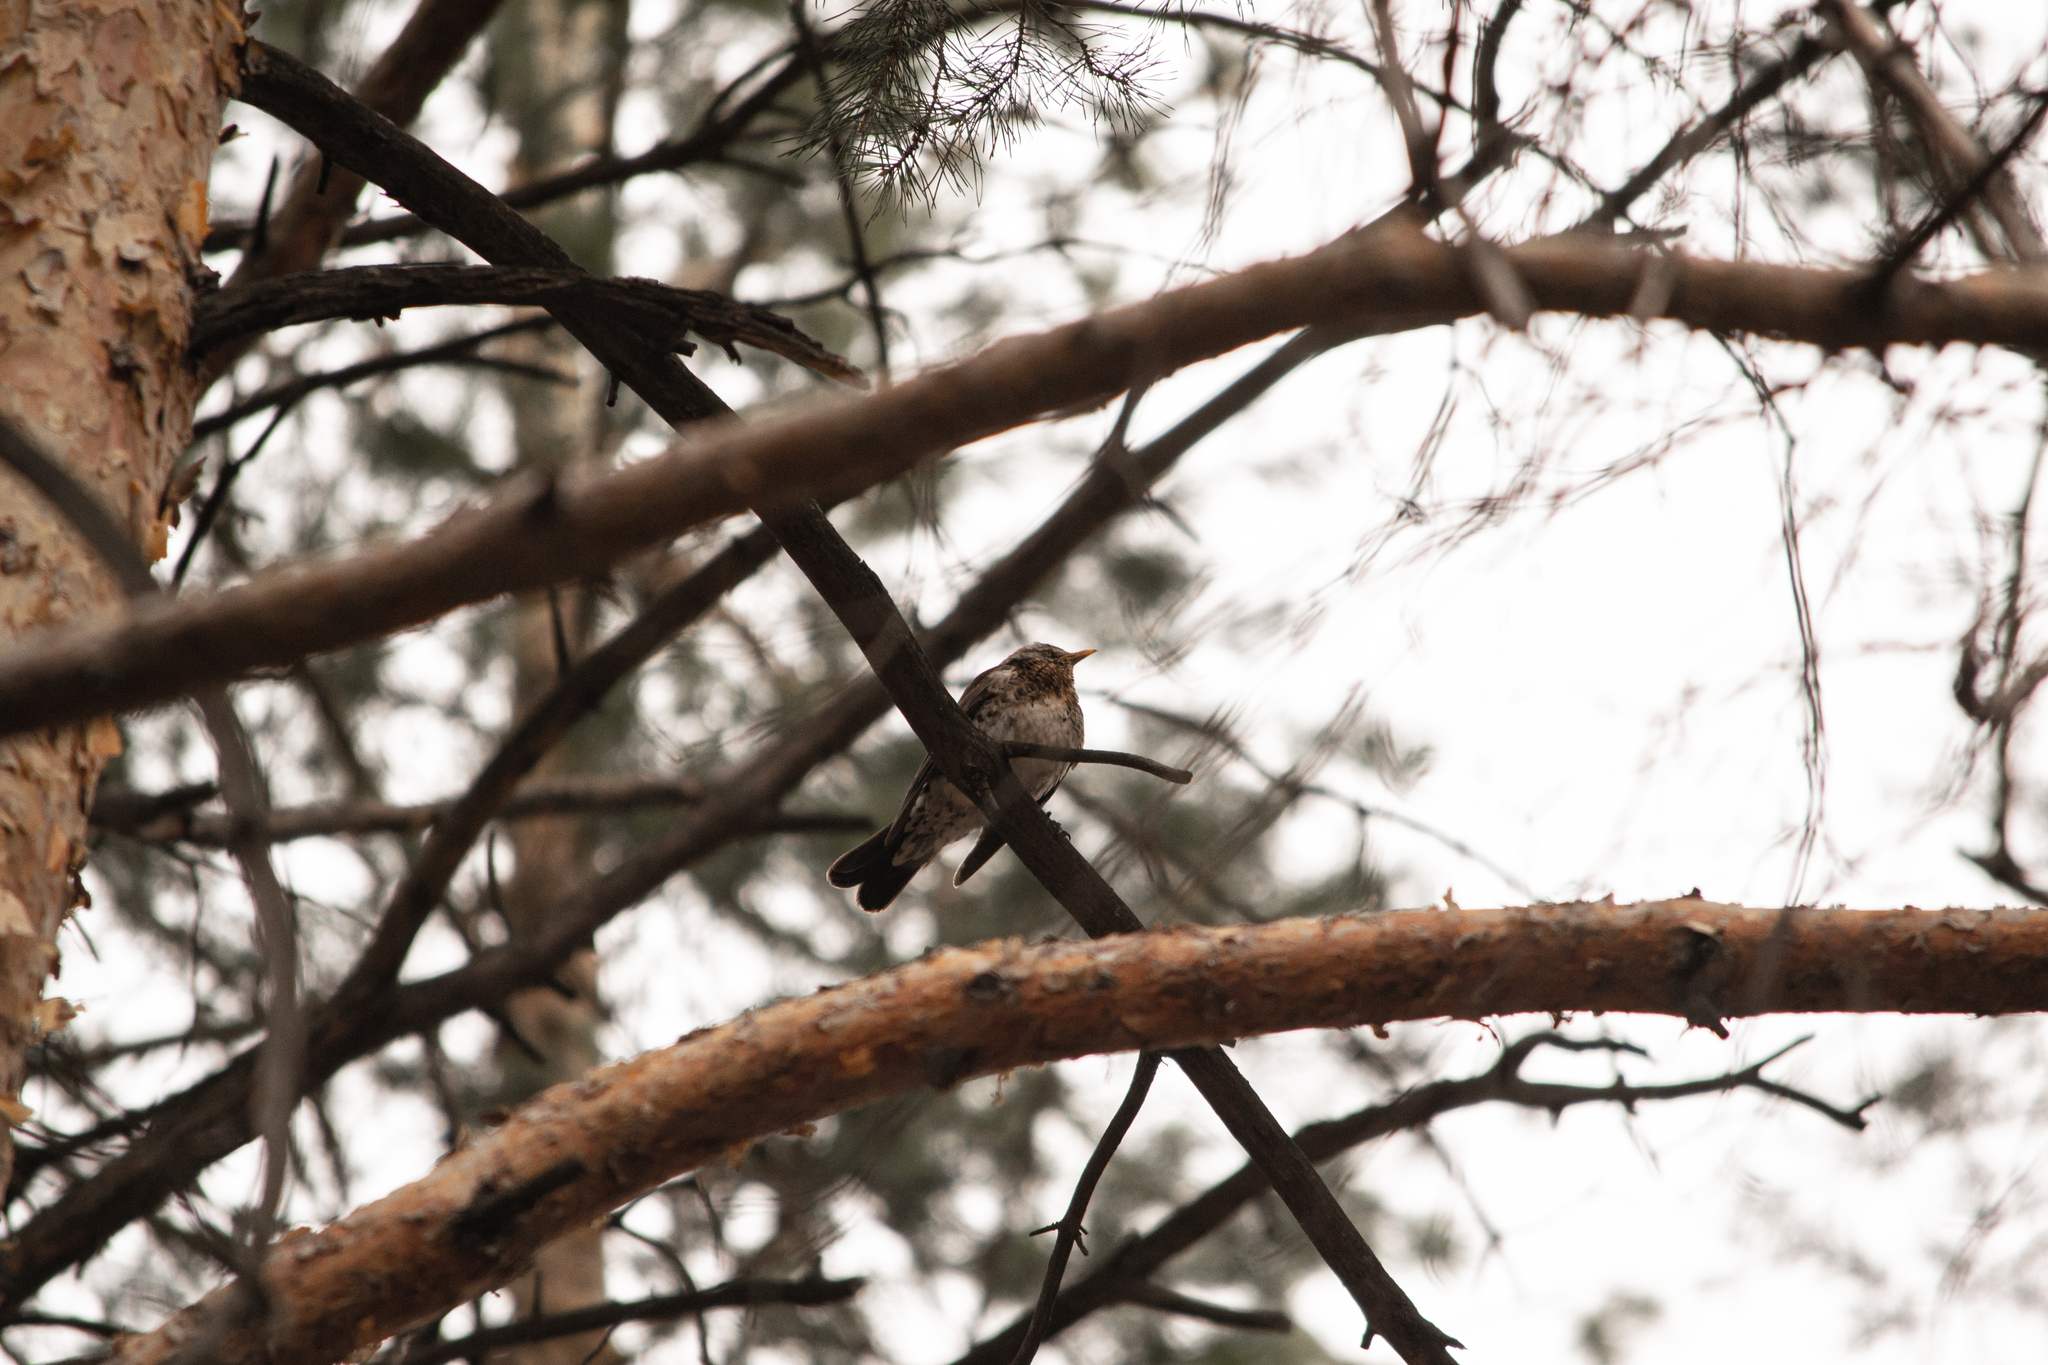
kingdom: Animalia
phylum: Chordata
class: Aves
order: Passeriformes
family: Turdidae
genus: Turdus
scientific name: Turdus pilaris
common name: Fieldfare
